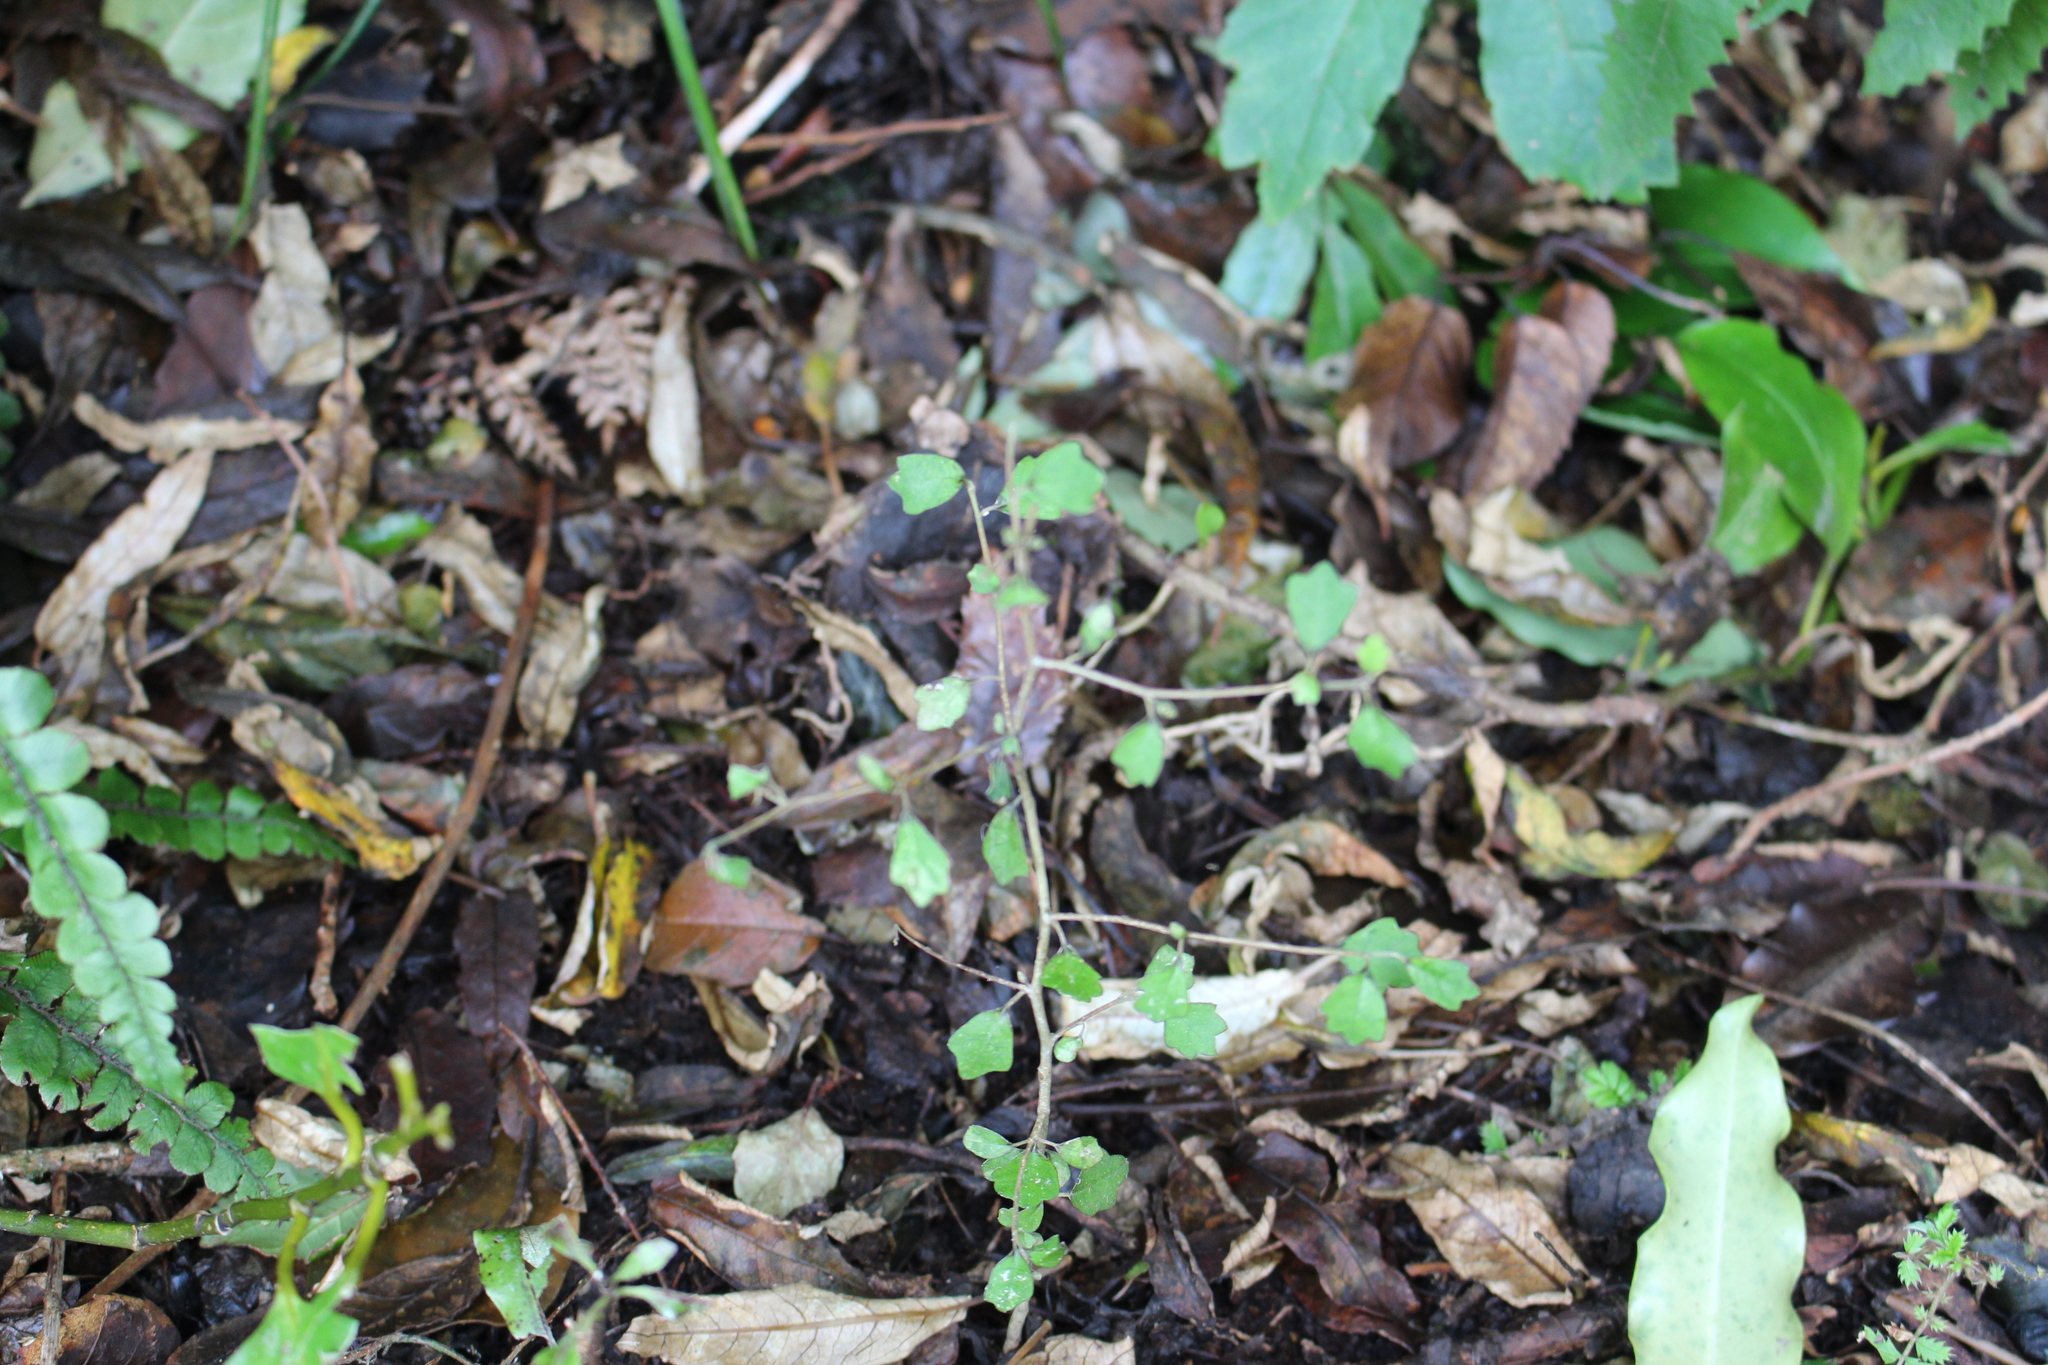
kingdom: Plantae
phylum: Tracheophyta
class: Magnoliopsida
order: Apiales
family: Pennantiaceae
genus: Pennantia
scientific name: Pennantia corymbosa
